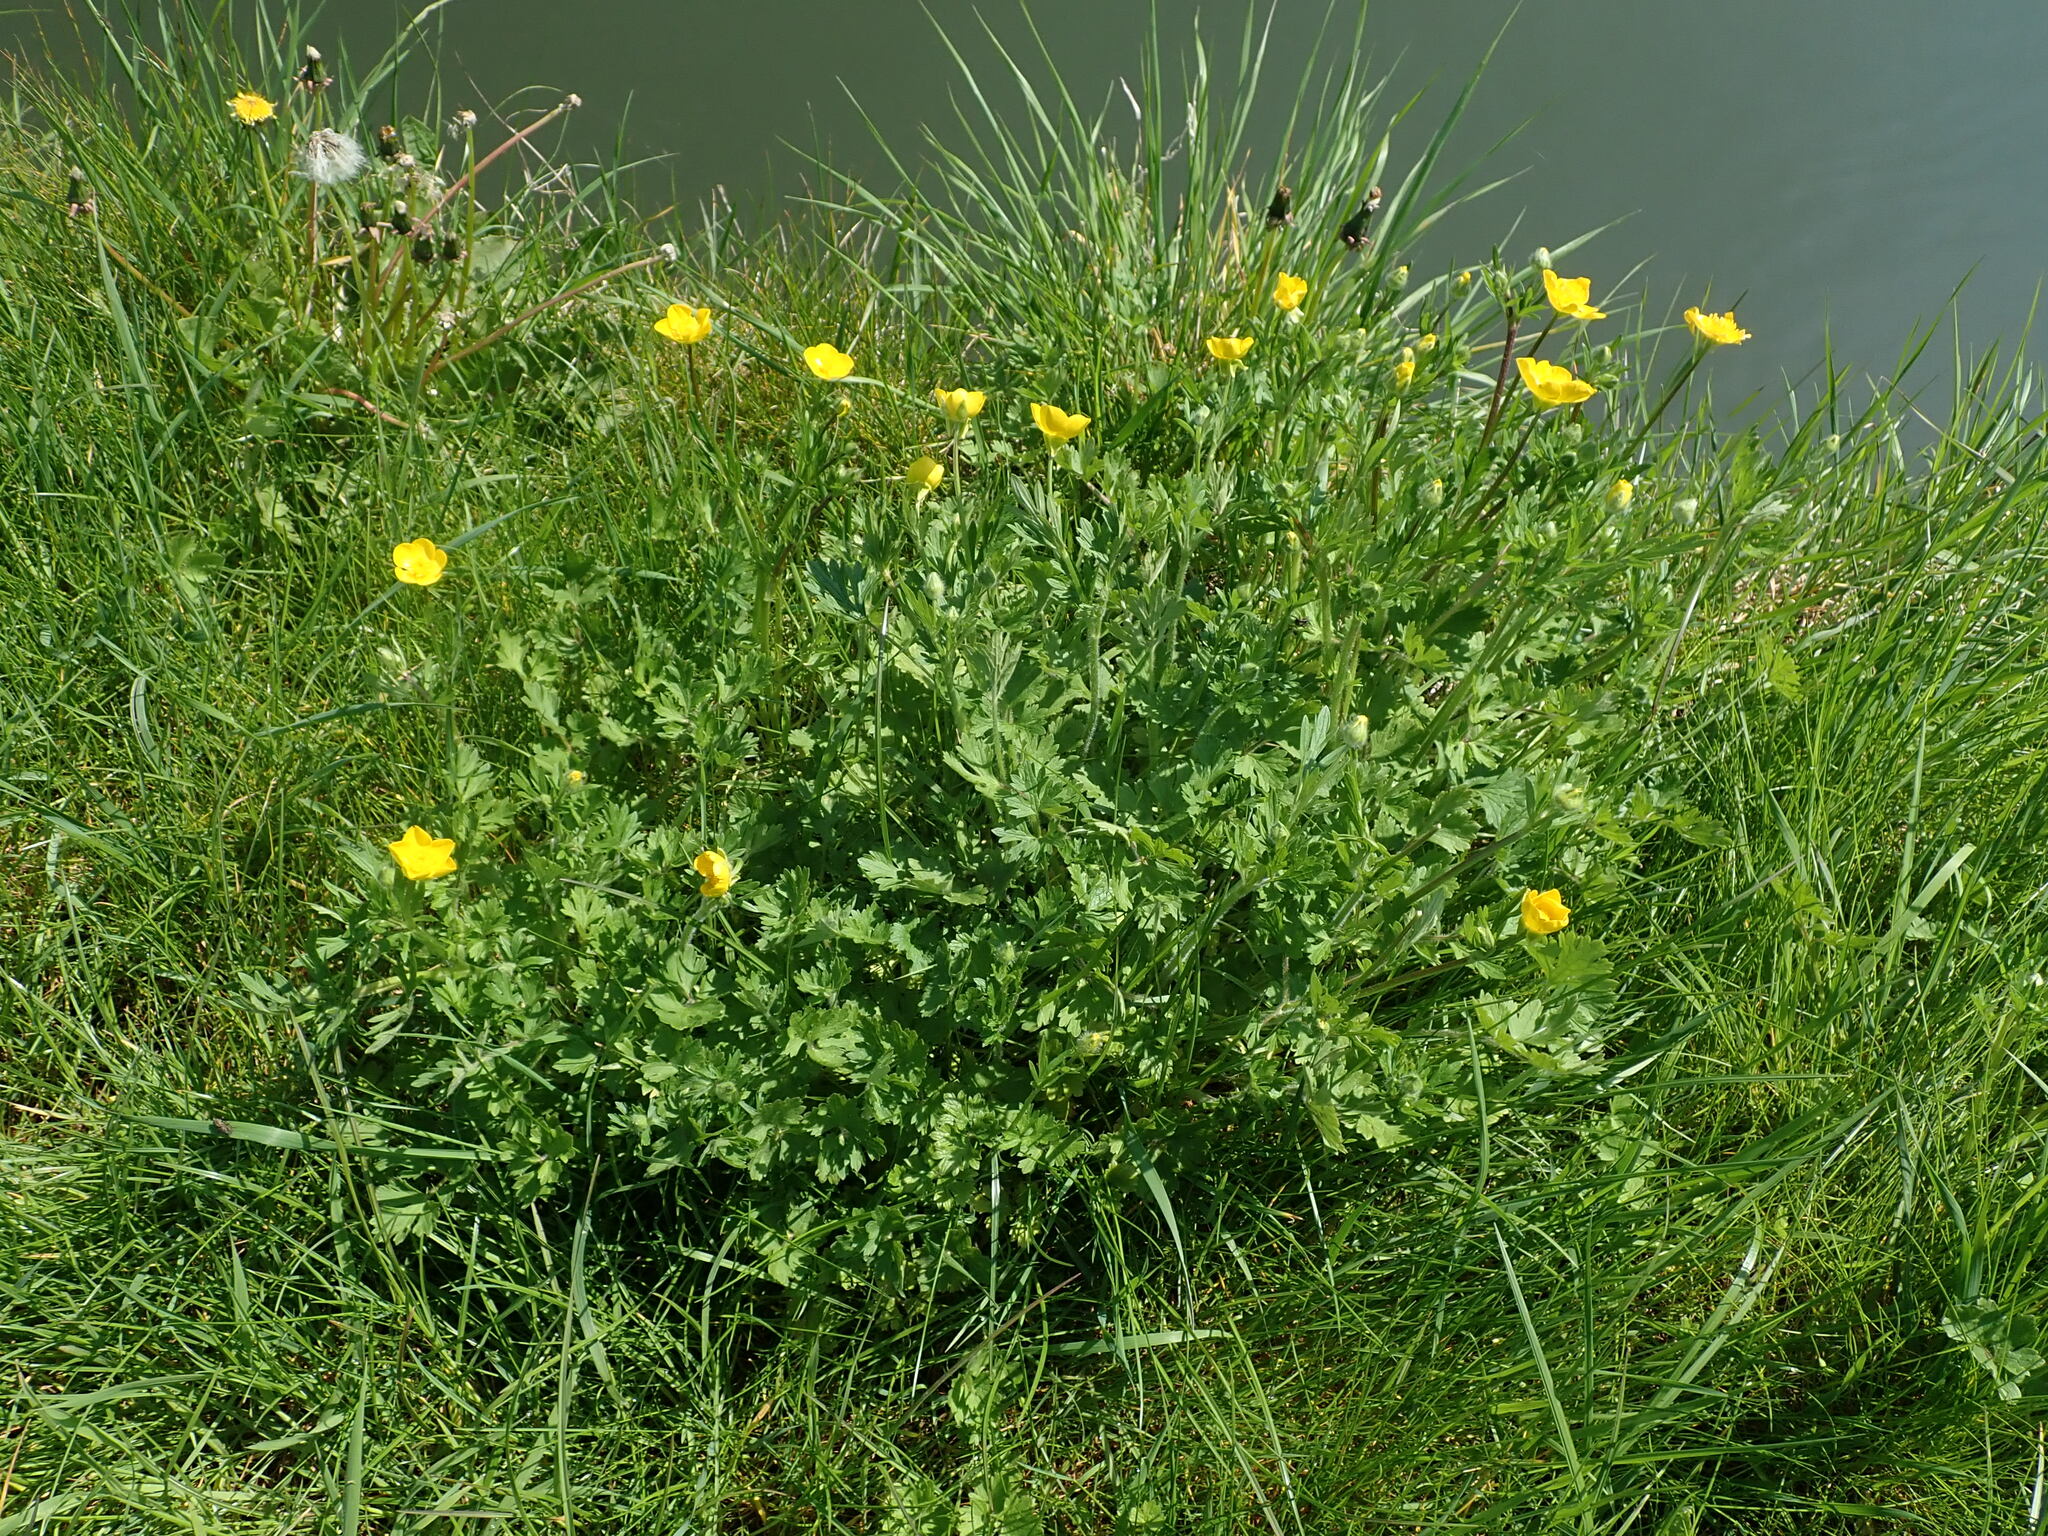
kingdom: Plantae
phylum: Tracheophyta
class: Magnoliopsida
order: Ranunculales
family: Ranunculaceae
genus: Ranunculus
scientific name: Ranunculus bulbosus
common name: Bulbous buttercup
